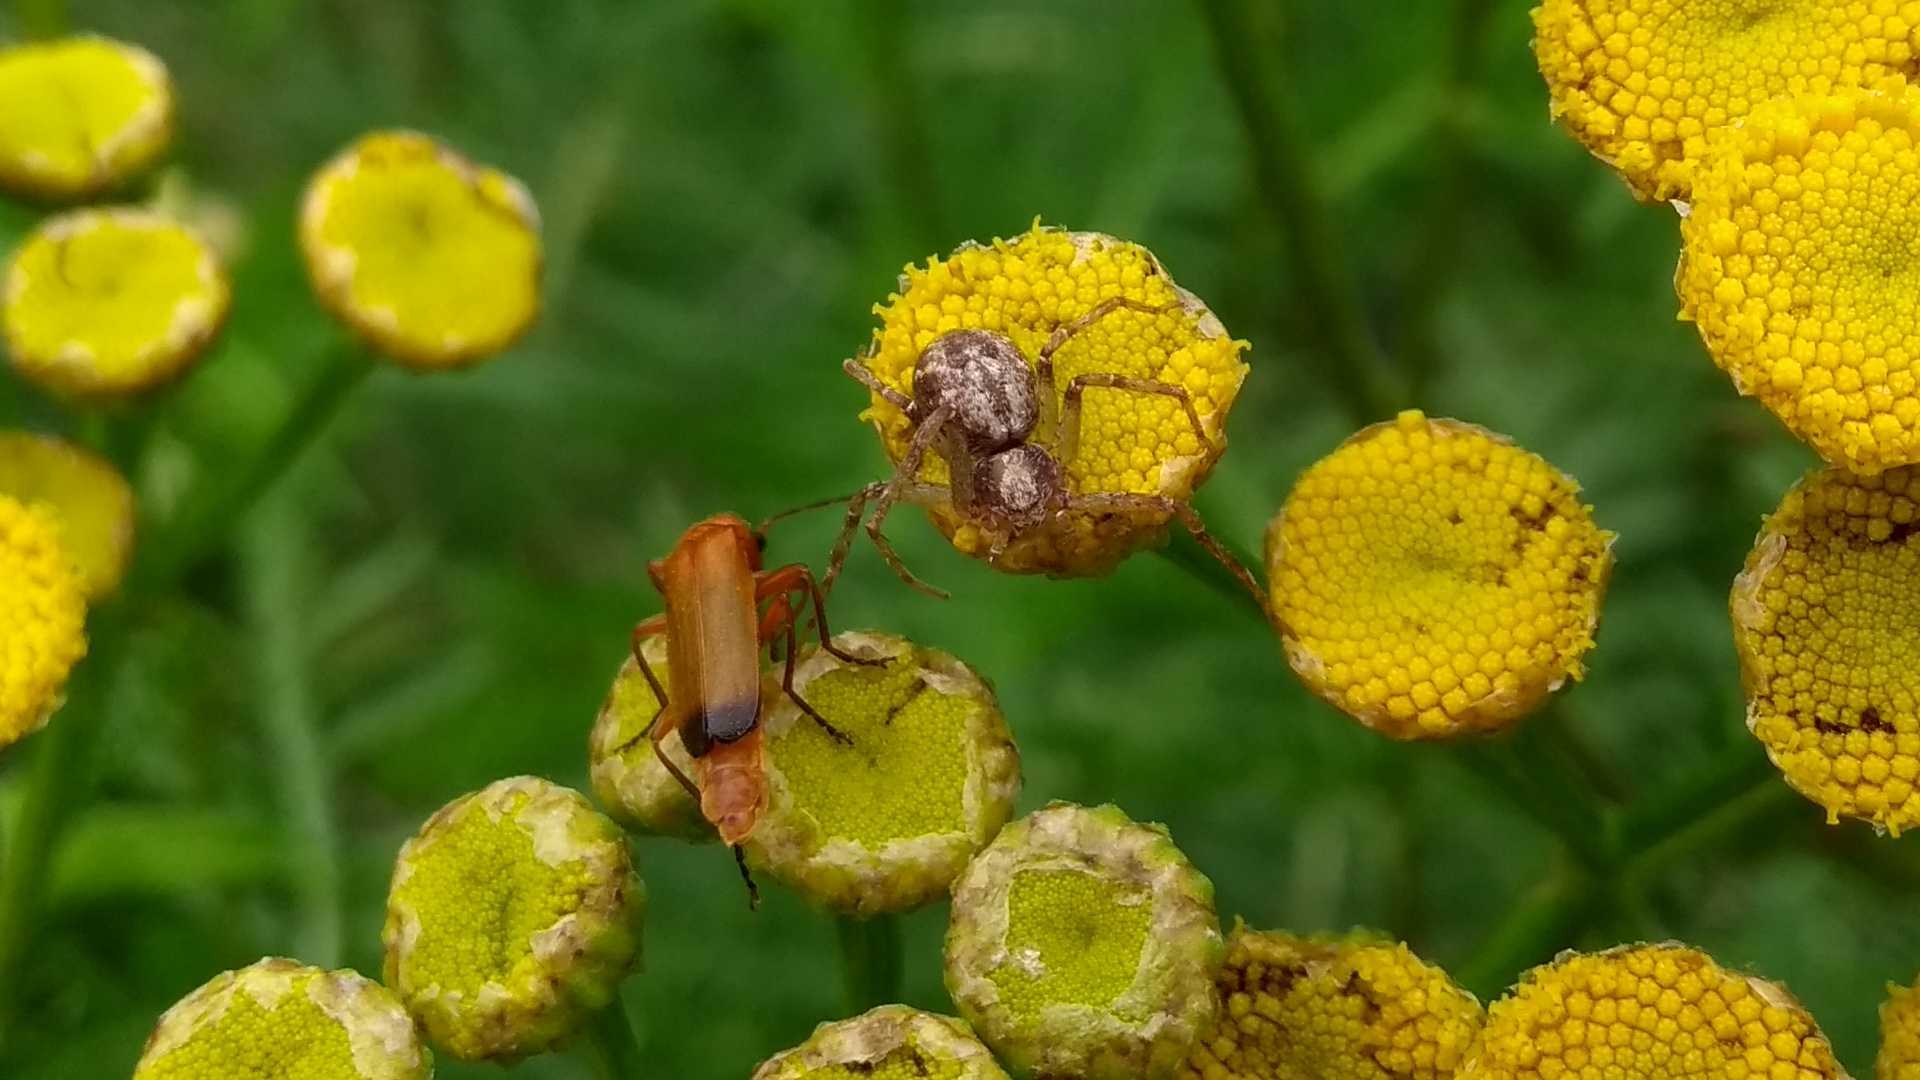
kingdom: Animalia
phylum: Arthropoda
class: Insecta
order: Coleoptera
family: Cantharidae
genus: Rhagonycha
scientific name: Rhagonycha fulva
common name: Common red soldier beetle
